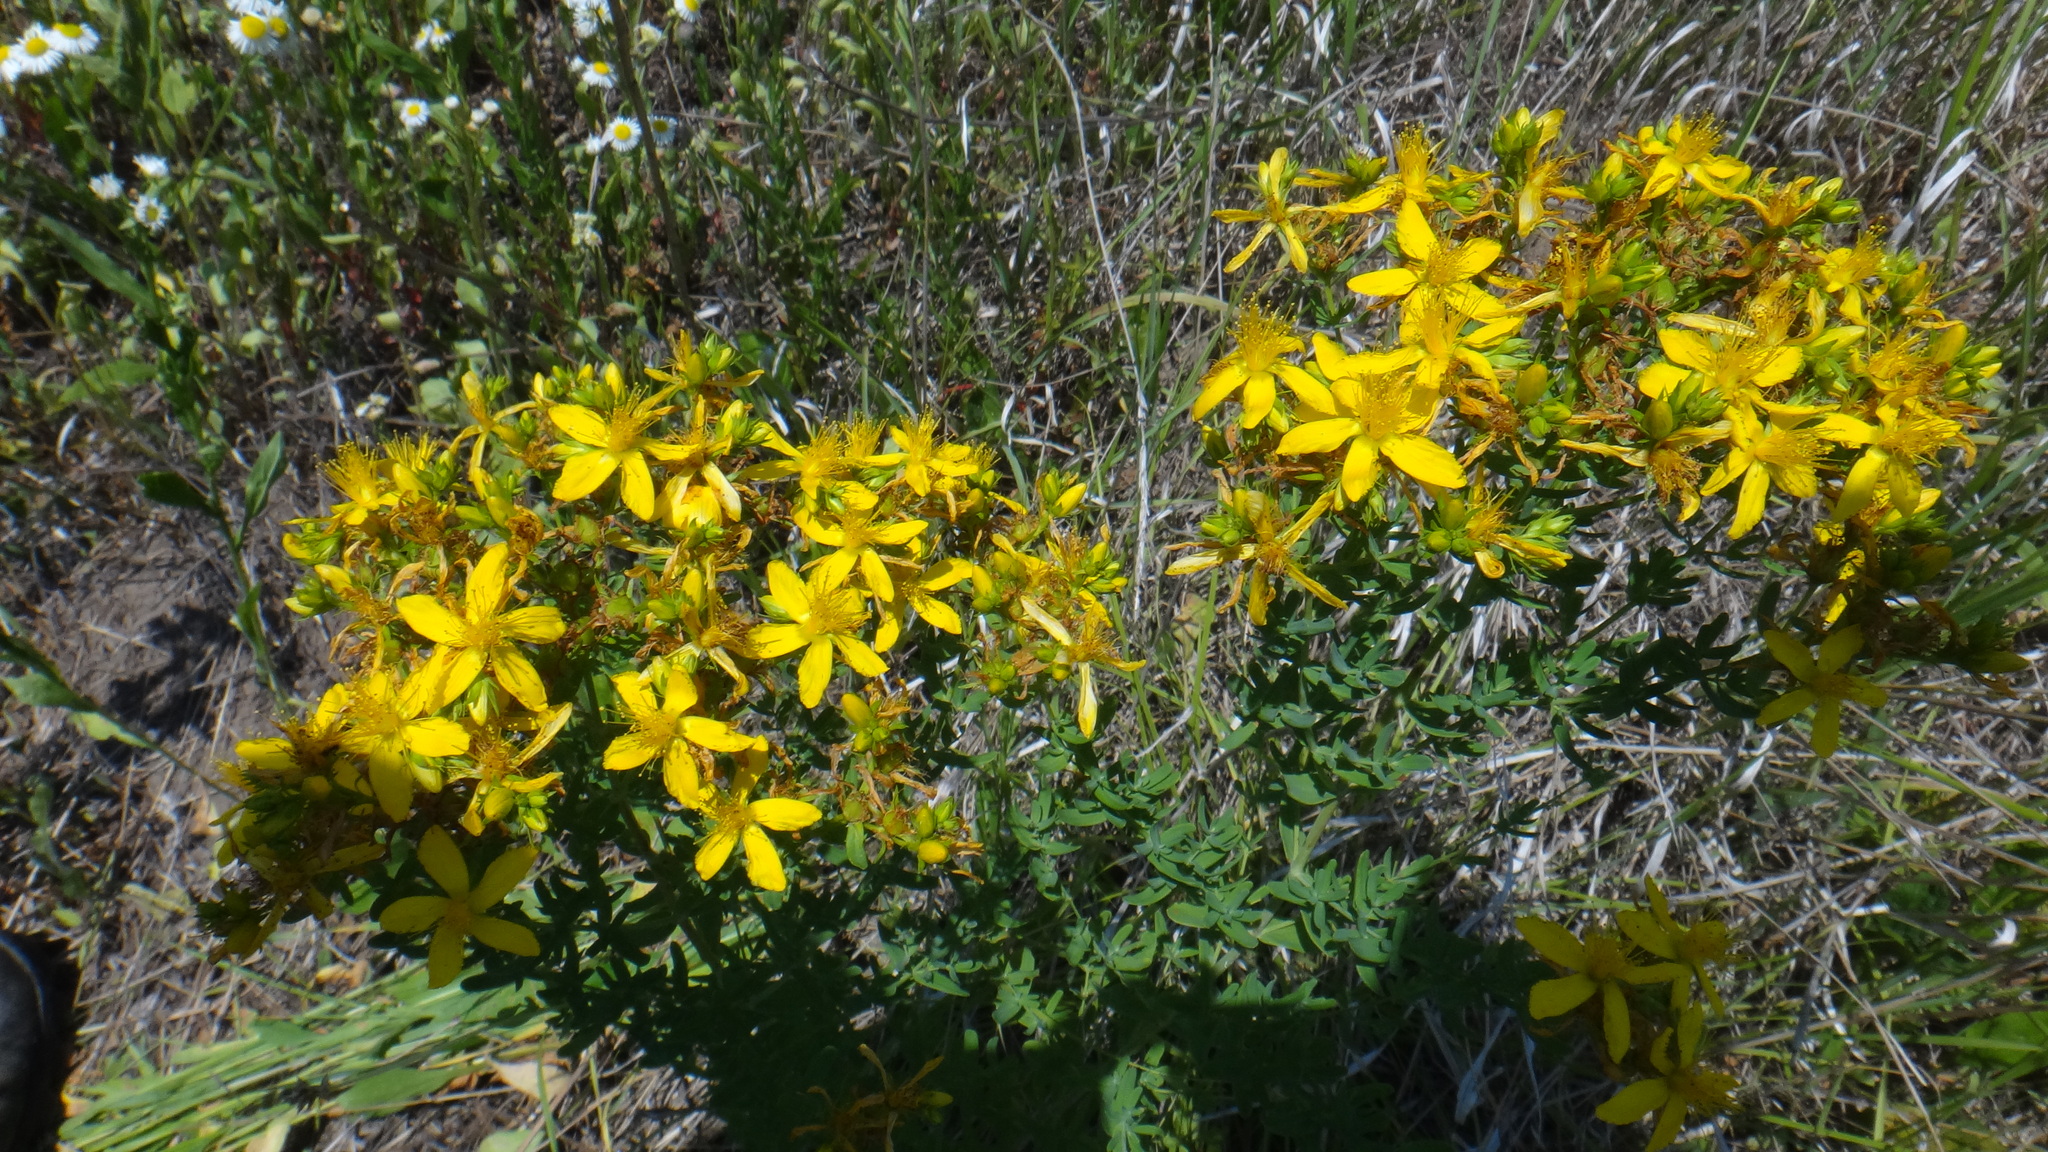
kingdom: Plantae
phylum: Tracheophyta
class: Magnoliopsida
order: Malpighiales
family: Hypericaceae
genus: Hypericum
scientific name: Hypericum perforatum
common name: Common st. johnswort
